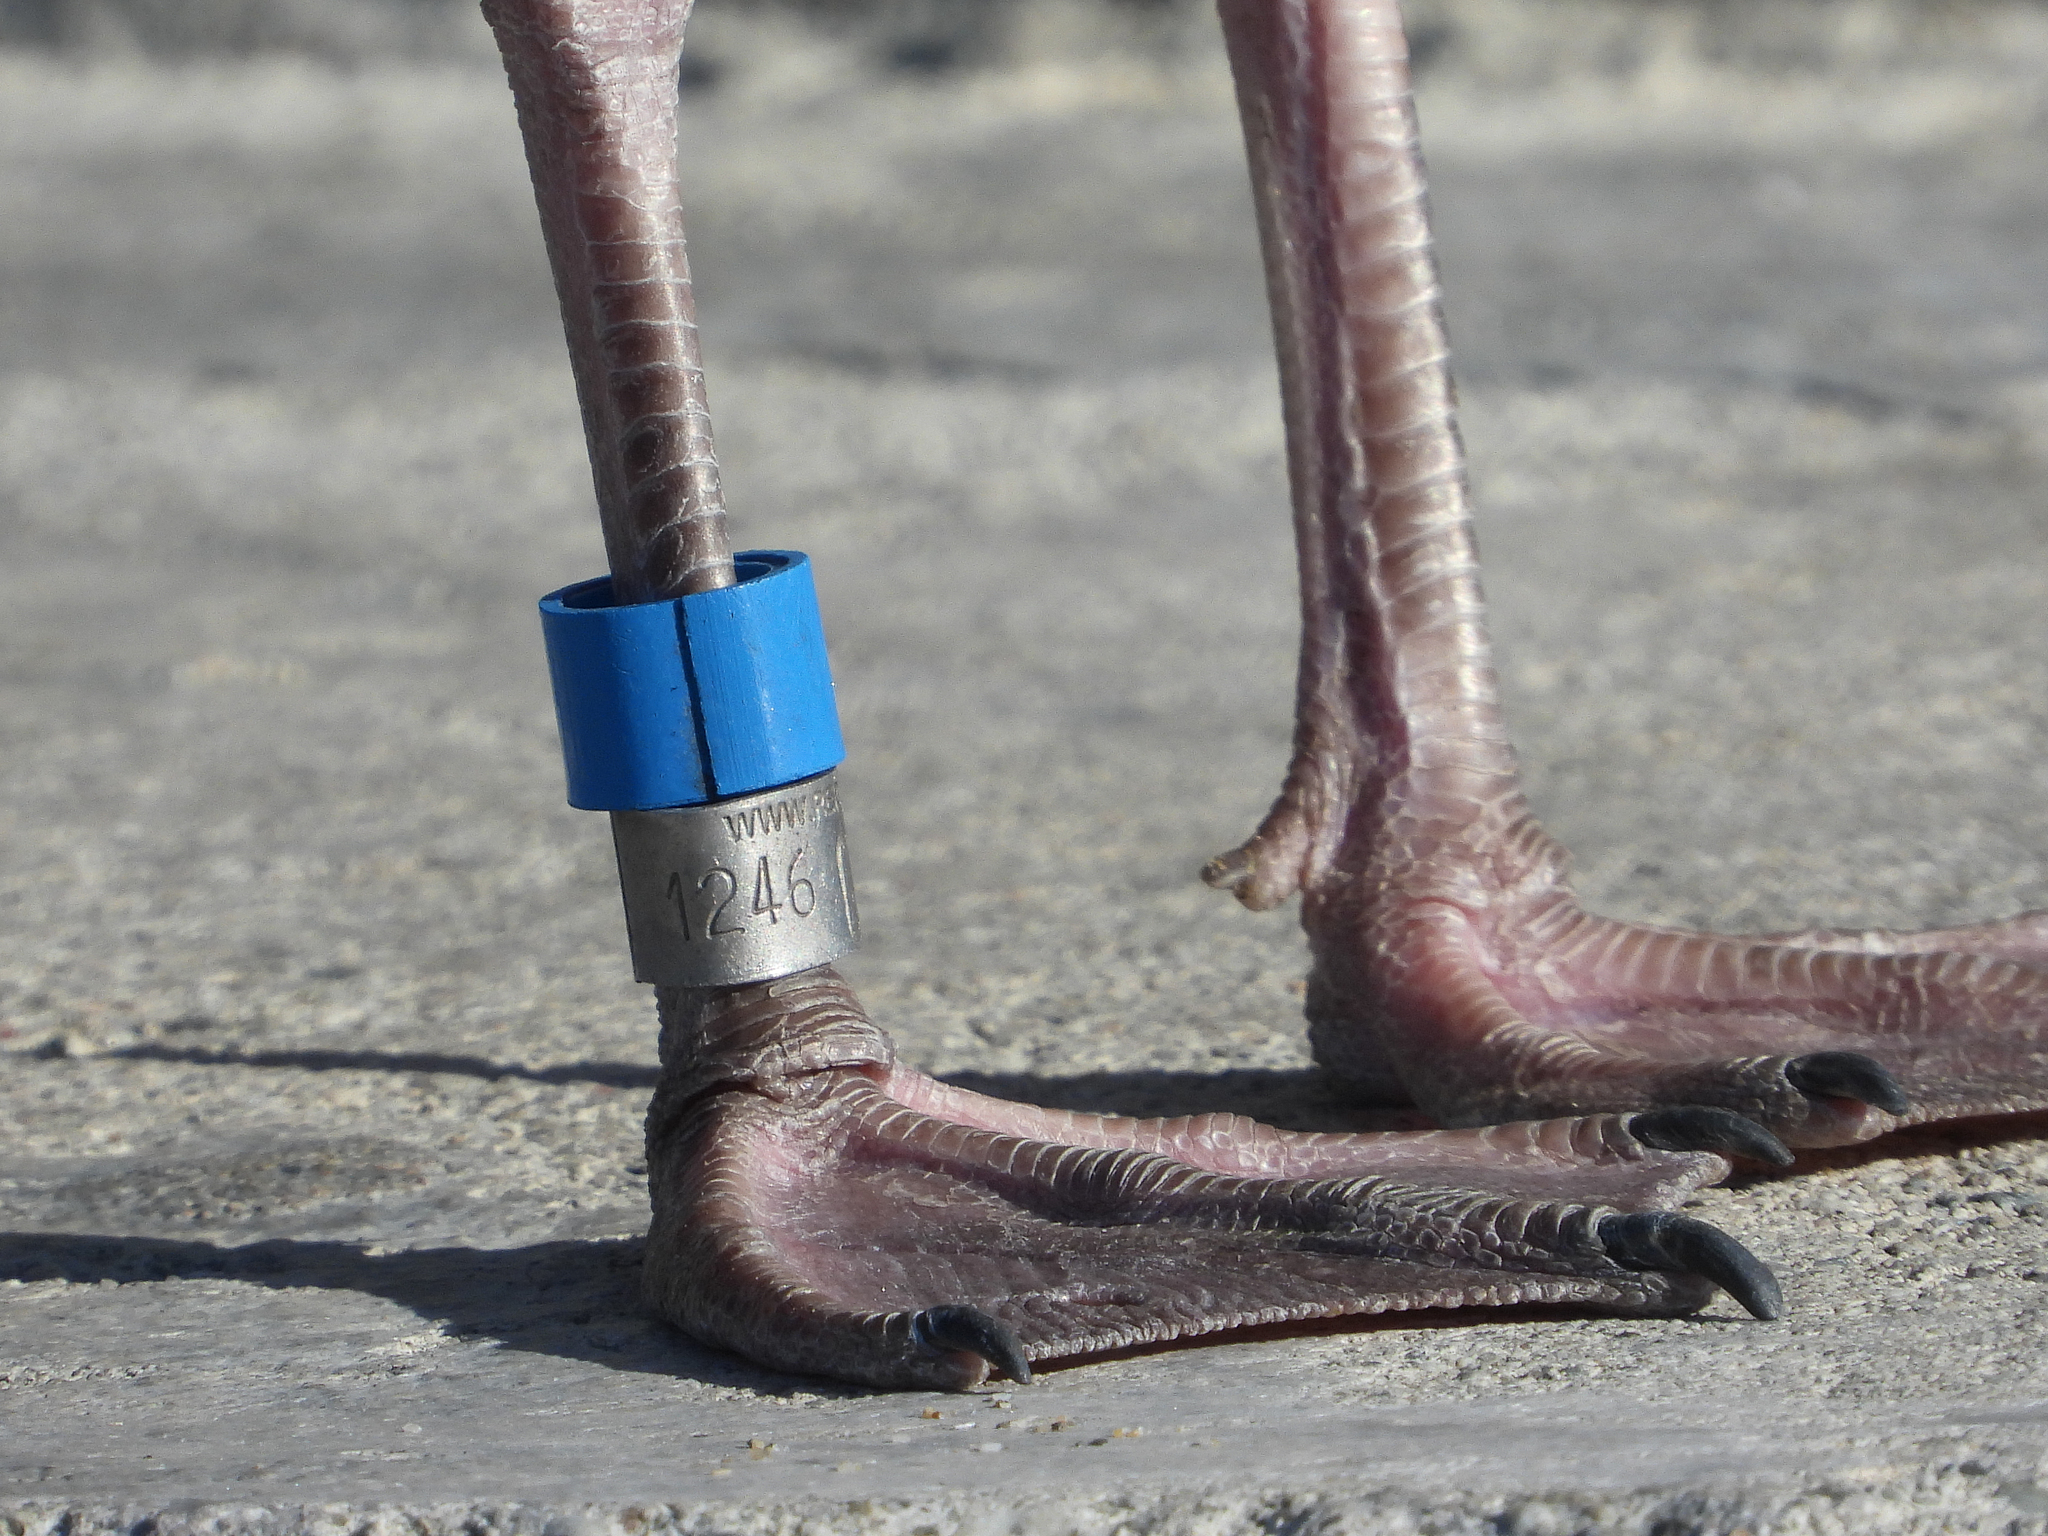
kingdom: Animalia
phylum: Chordata
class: Aves
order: Charadriiformes
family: Laridae
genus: Larus
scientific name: Larus occidentalis
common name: Western gull
